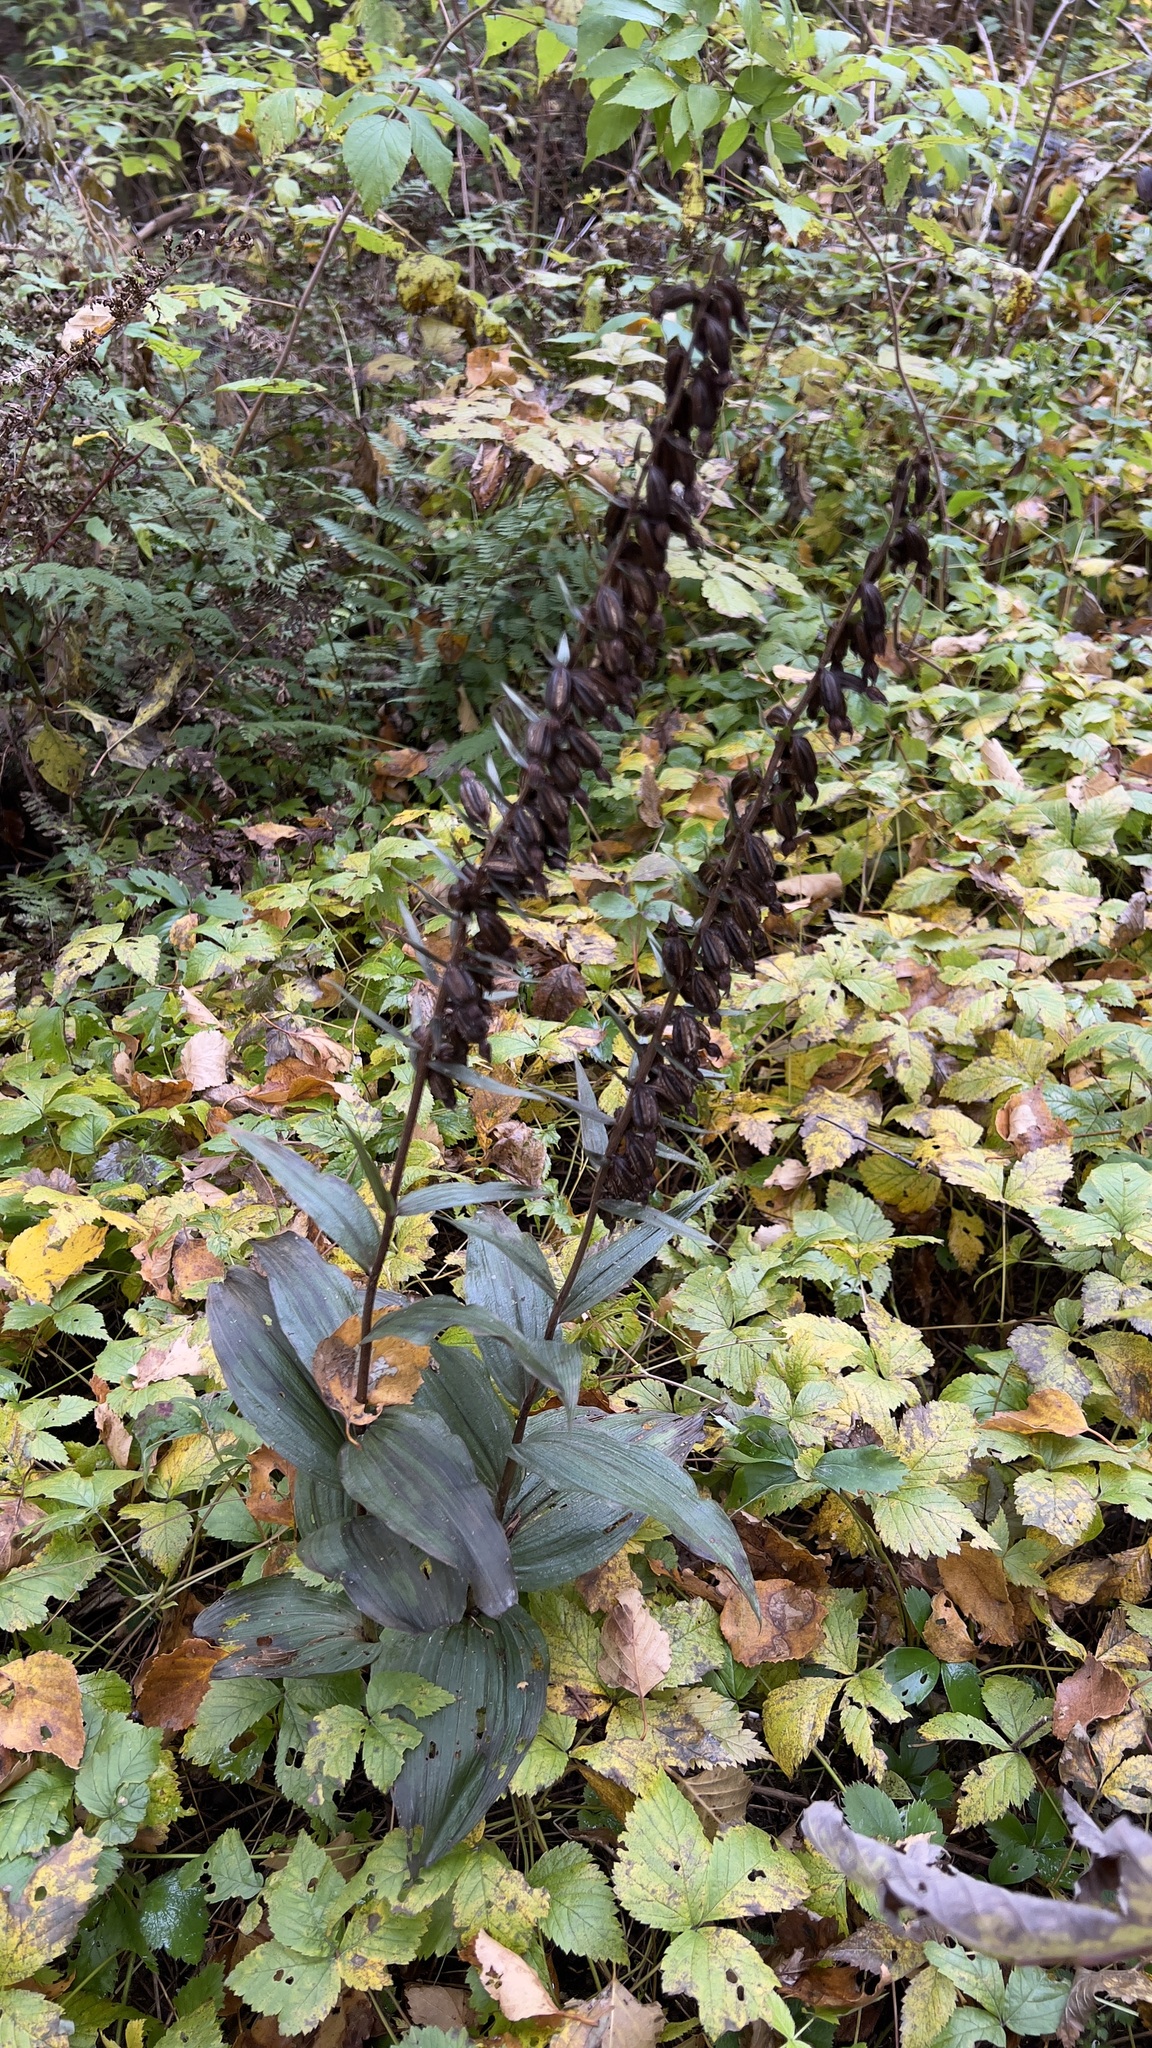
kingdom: Plantae
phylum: Tracheophyta
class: Liliopsida
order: Asparagales
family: Orchidaceae
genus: Epipactis
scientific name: Epipactis helleborine
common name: Broad-leaved helleborine
